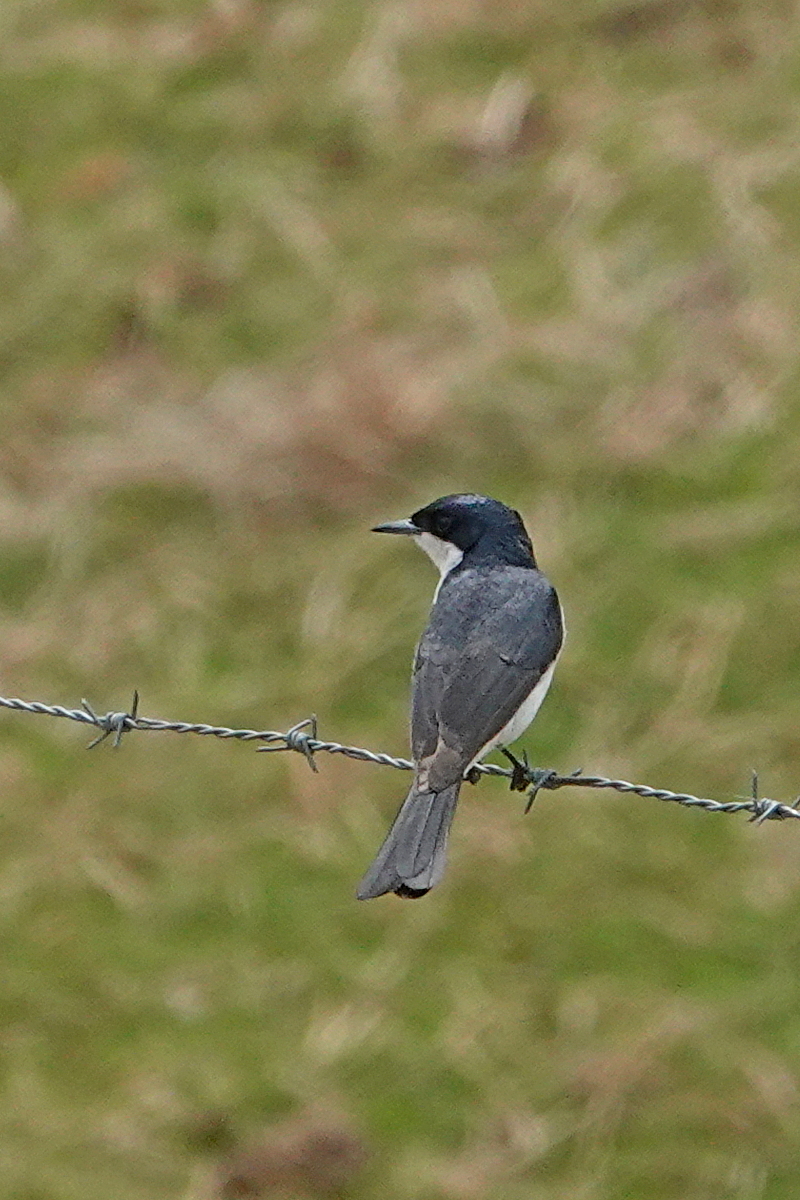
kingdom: Animalia
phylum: Chordata
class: Aves
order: Passeriformes
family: Monarchidae
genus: Myiagra
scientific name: Myiagra inquieta
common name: Restless flycatcher
